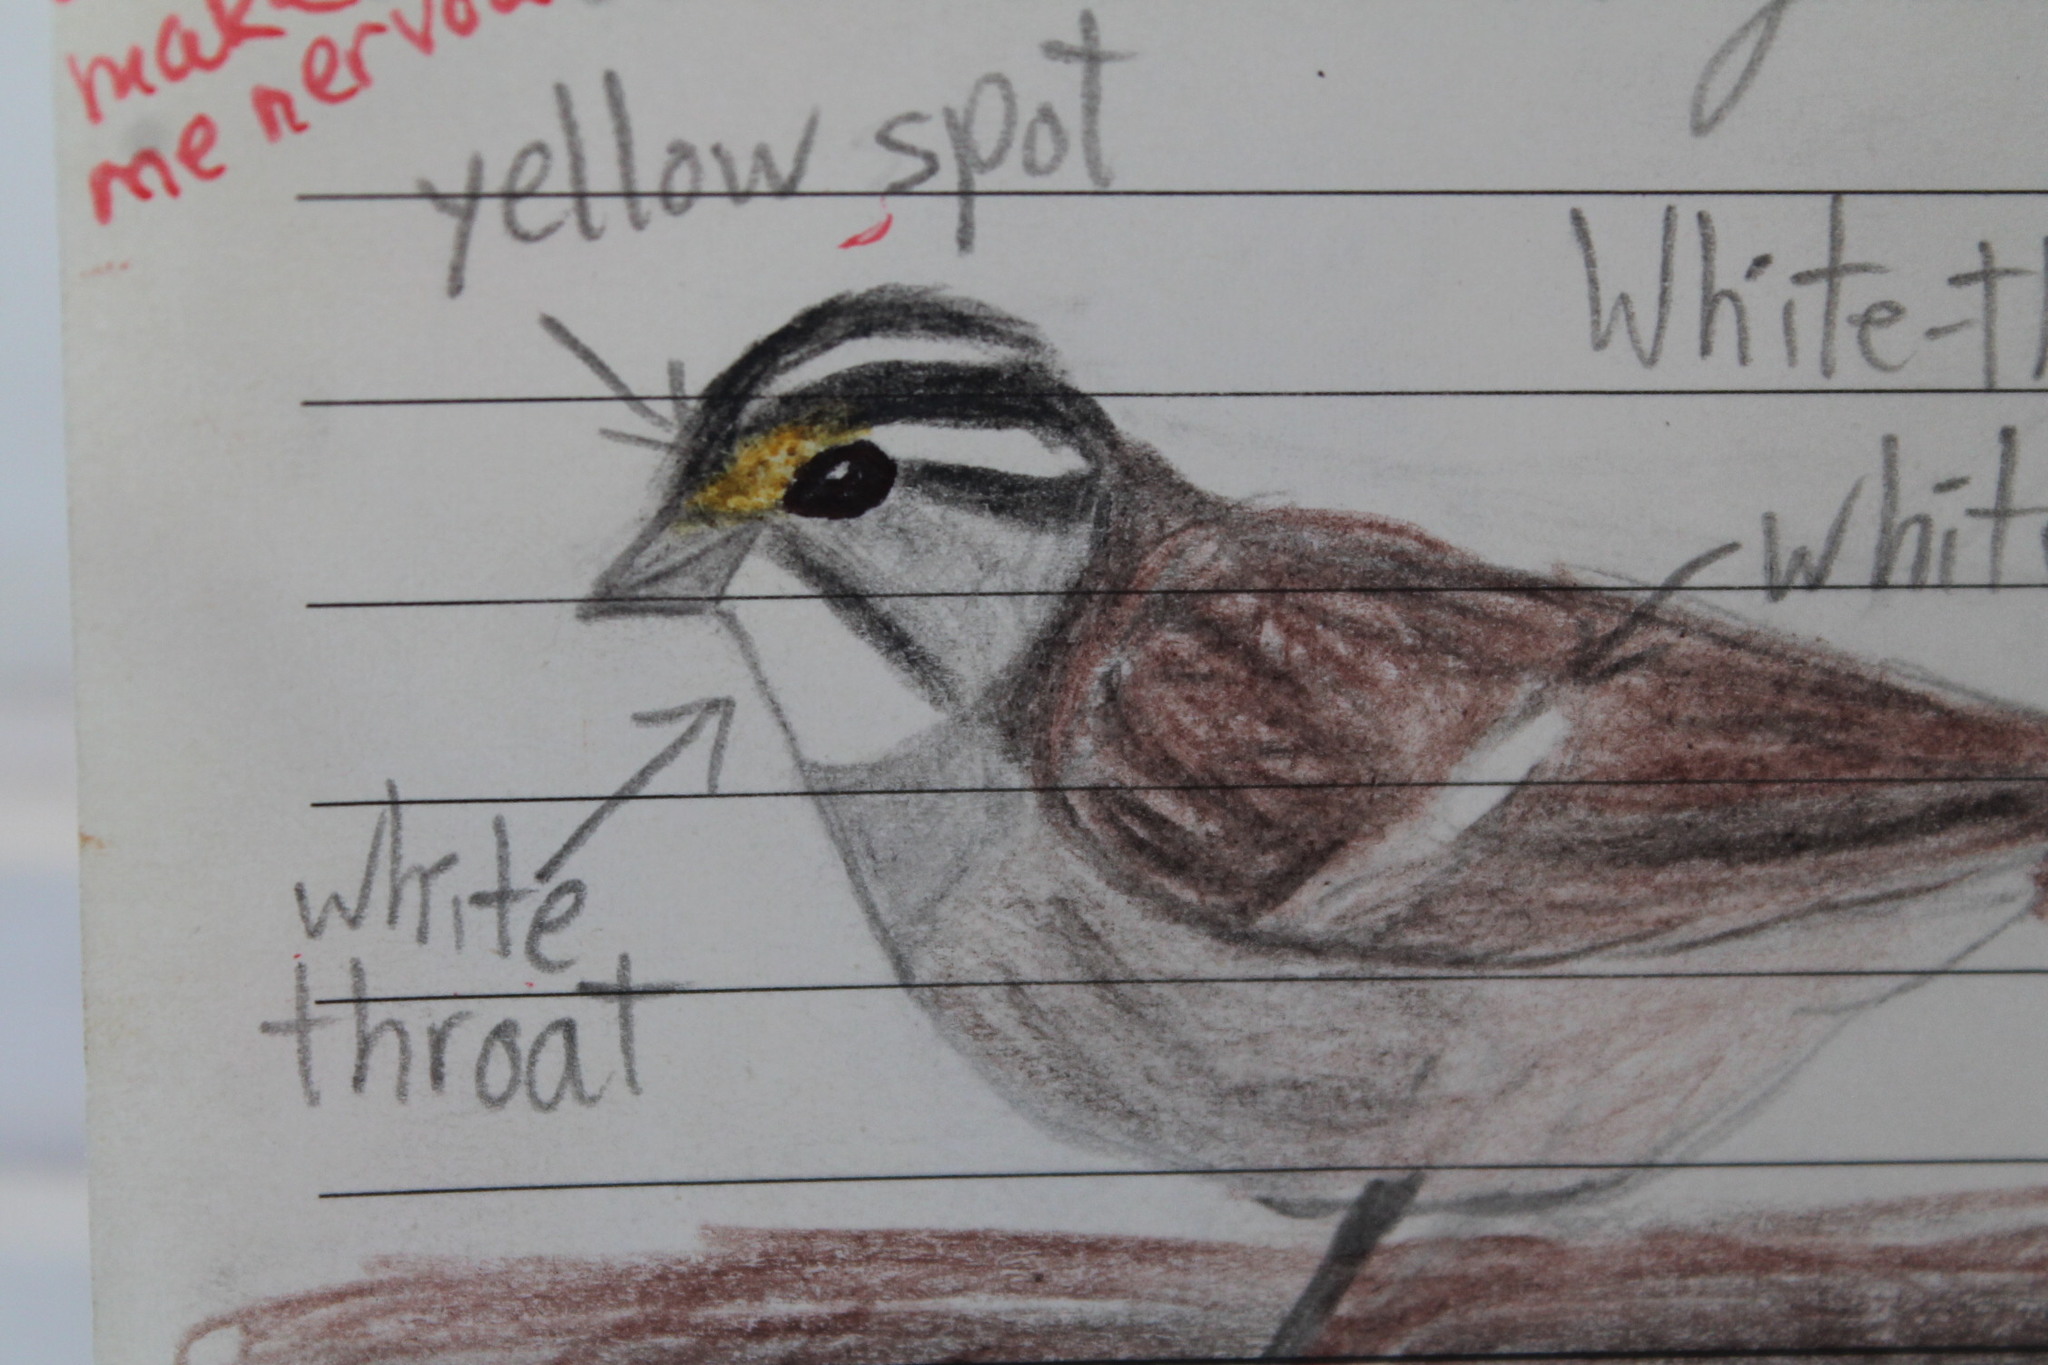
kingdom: Animalia
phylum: Chordata
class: Aves
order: Passeriformes
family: Passerellidae
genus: Zonotrichia
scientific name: Zonotrichia albicollis
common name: White-throated sparrow
